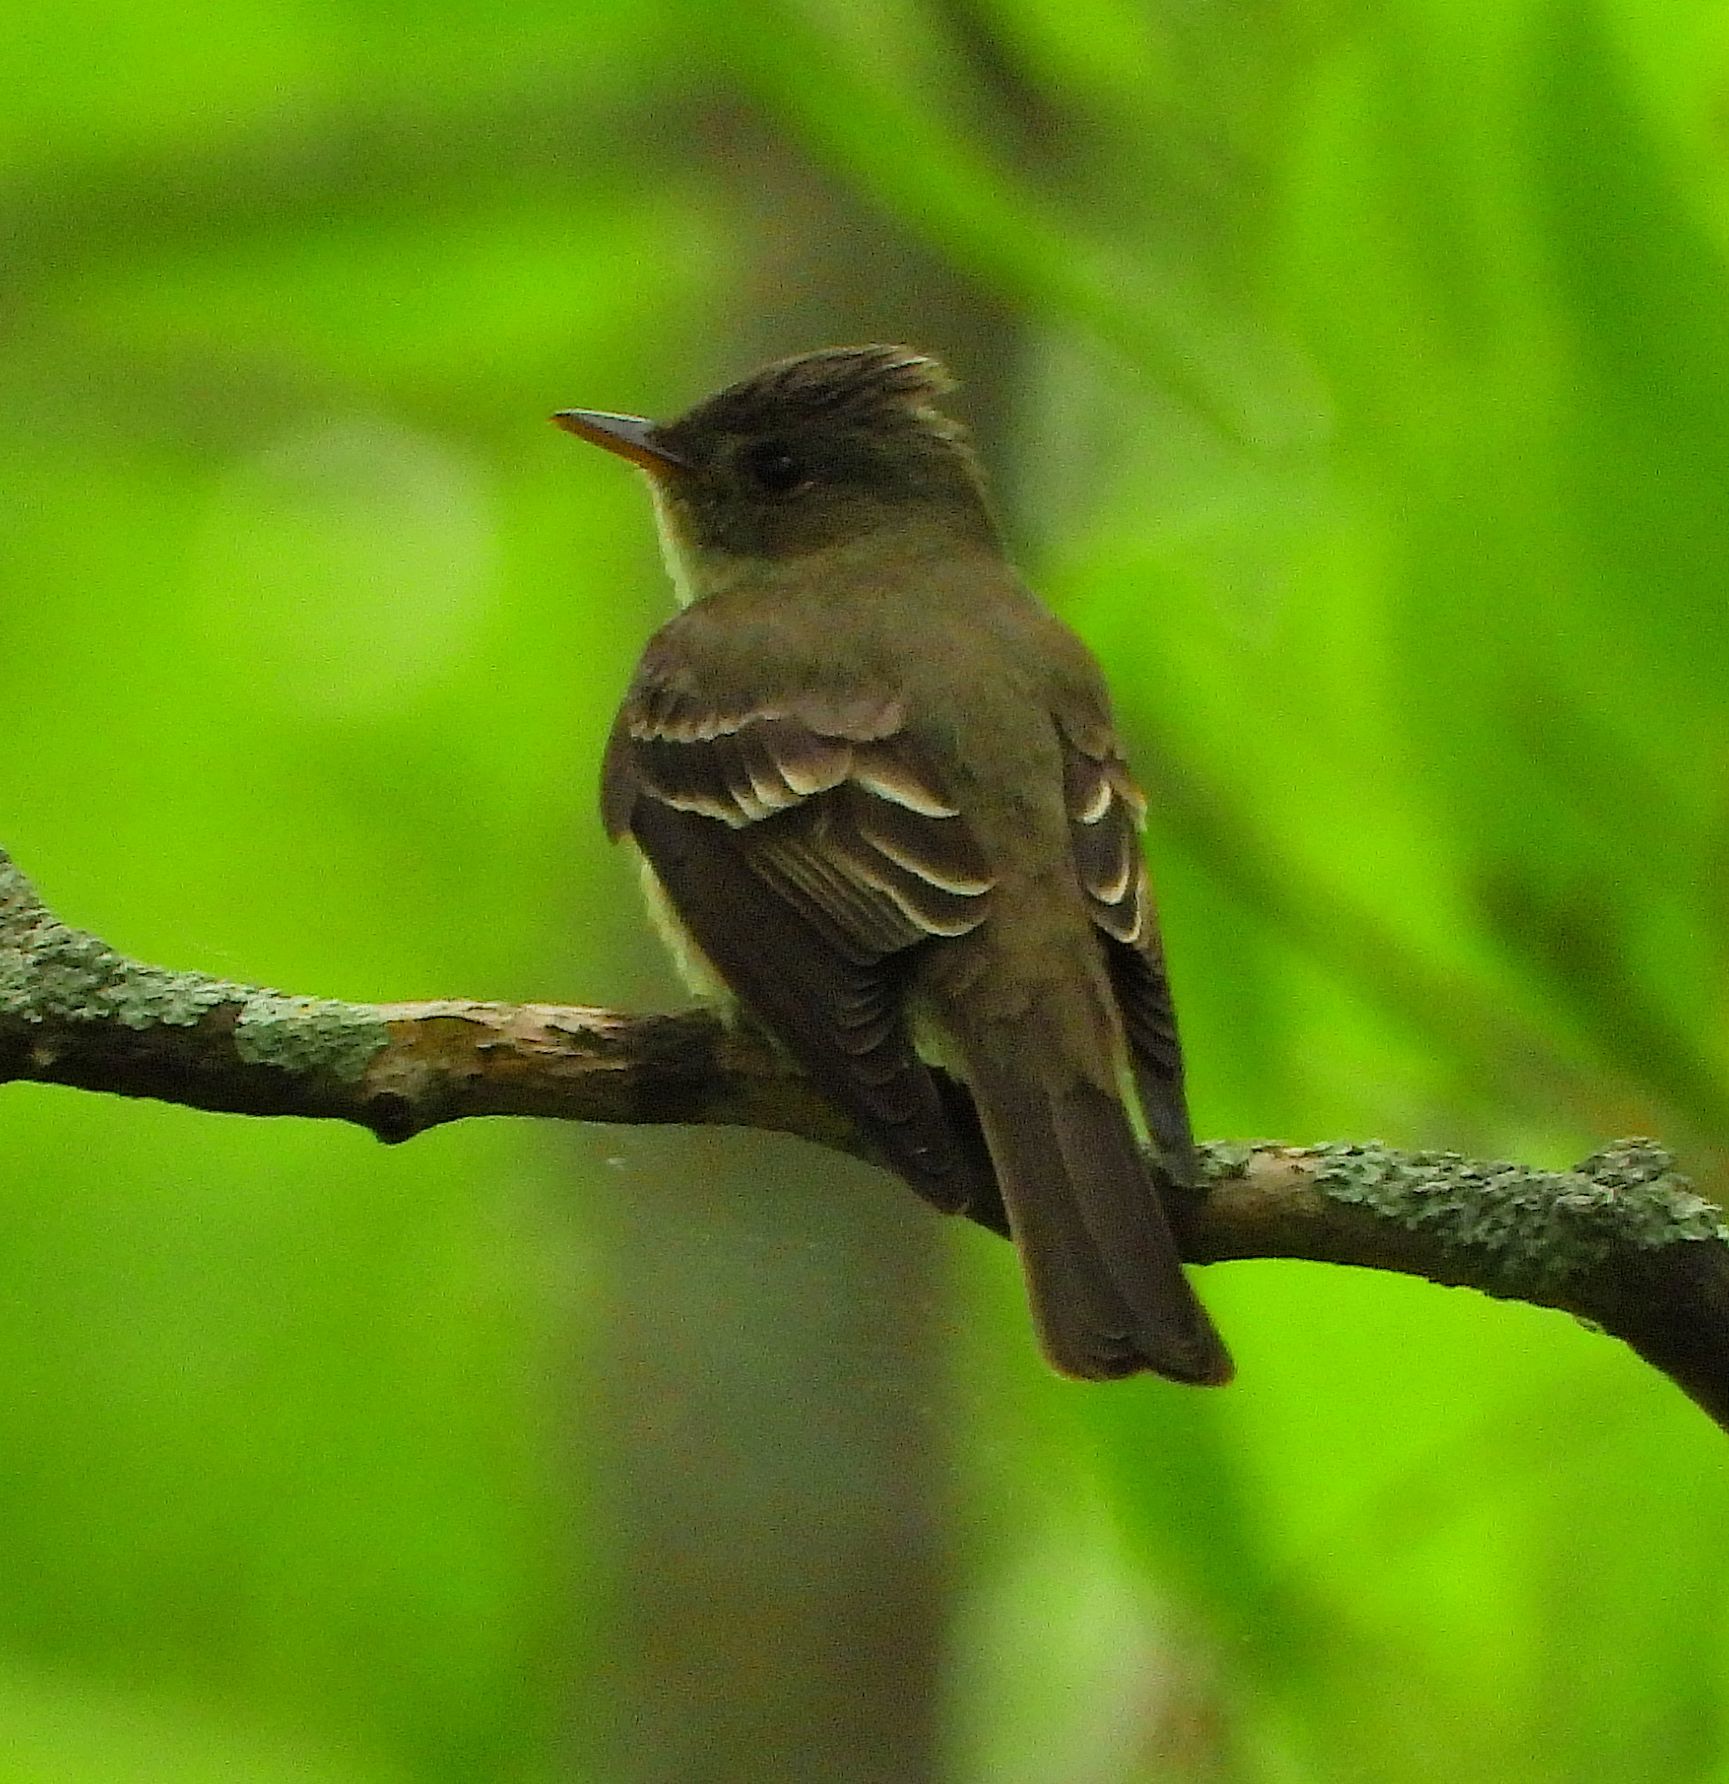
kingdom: Animalia
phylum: Chordata
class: Aves
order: Passeriformes
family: Tyrannidae
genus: Contopus
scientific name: Contopus virens
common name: Eastern wood-pewee
